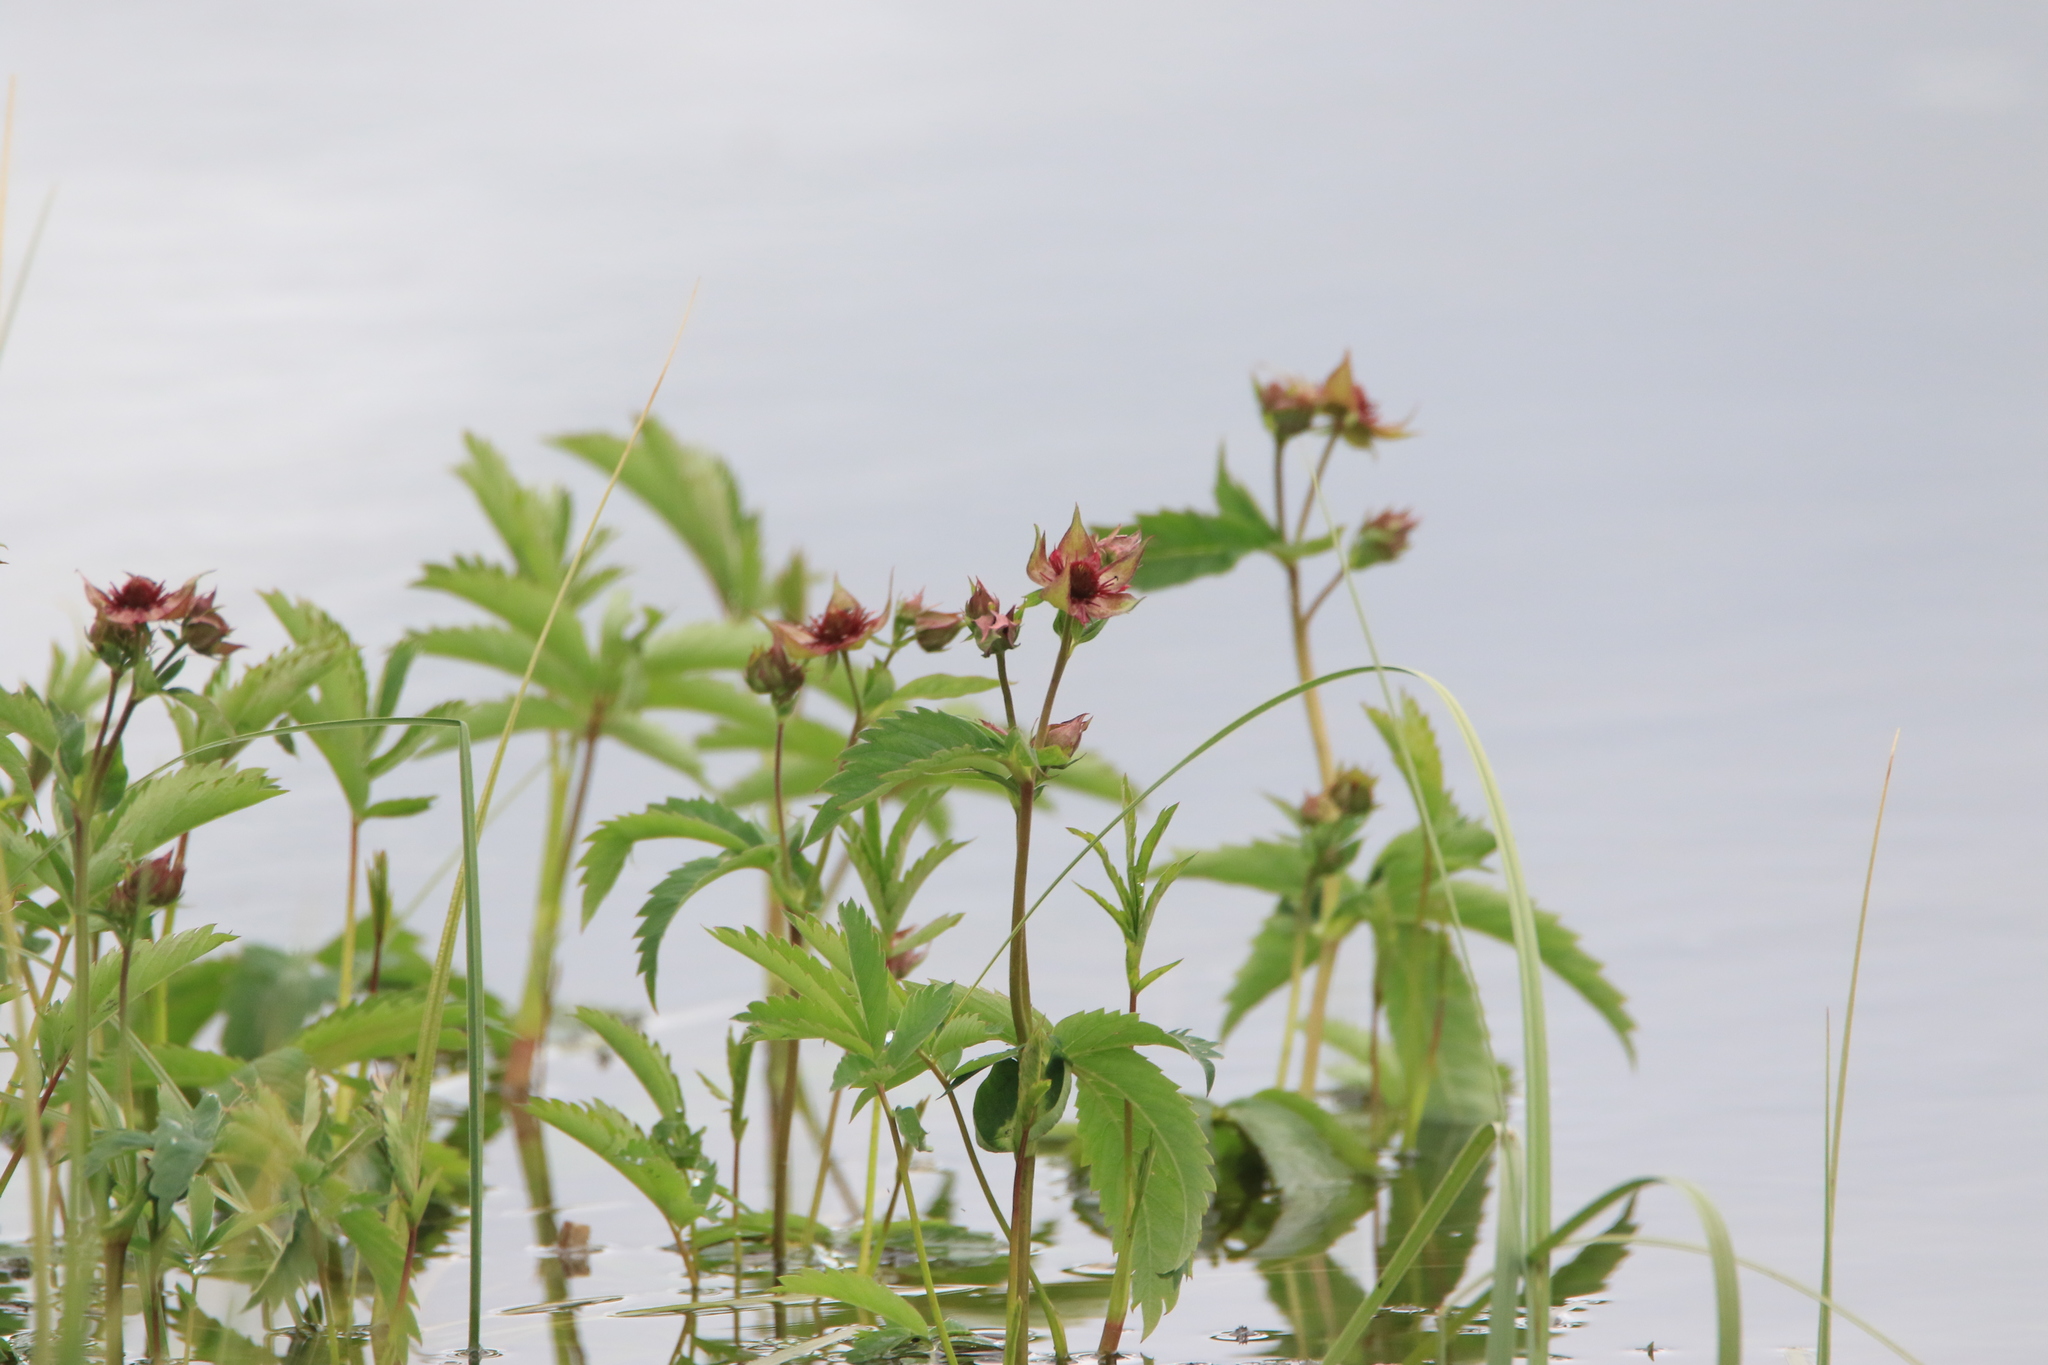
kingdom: Plantae
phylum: Tracheophyta
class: Magnoliopsida
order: Rosales
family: Rosaceae
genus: Comarum
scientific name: Comarum palustre
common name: Marsh cinquefoil
